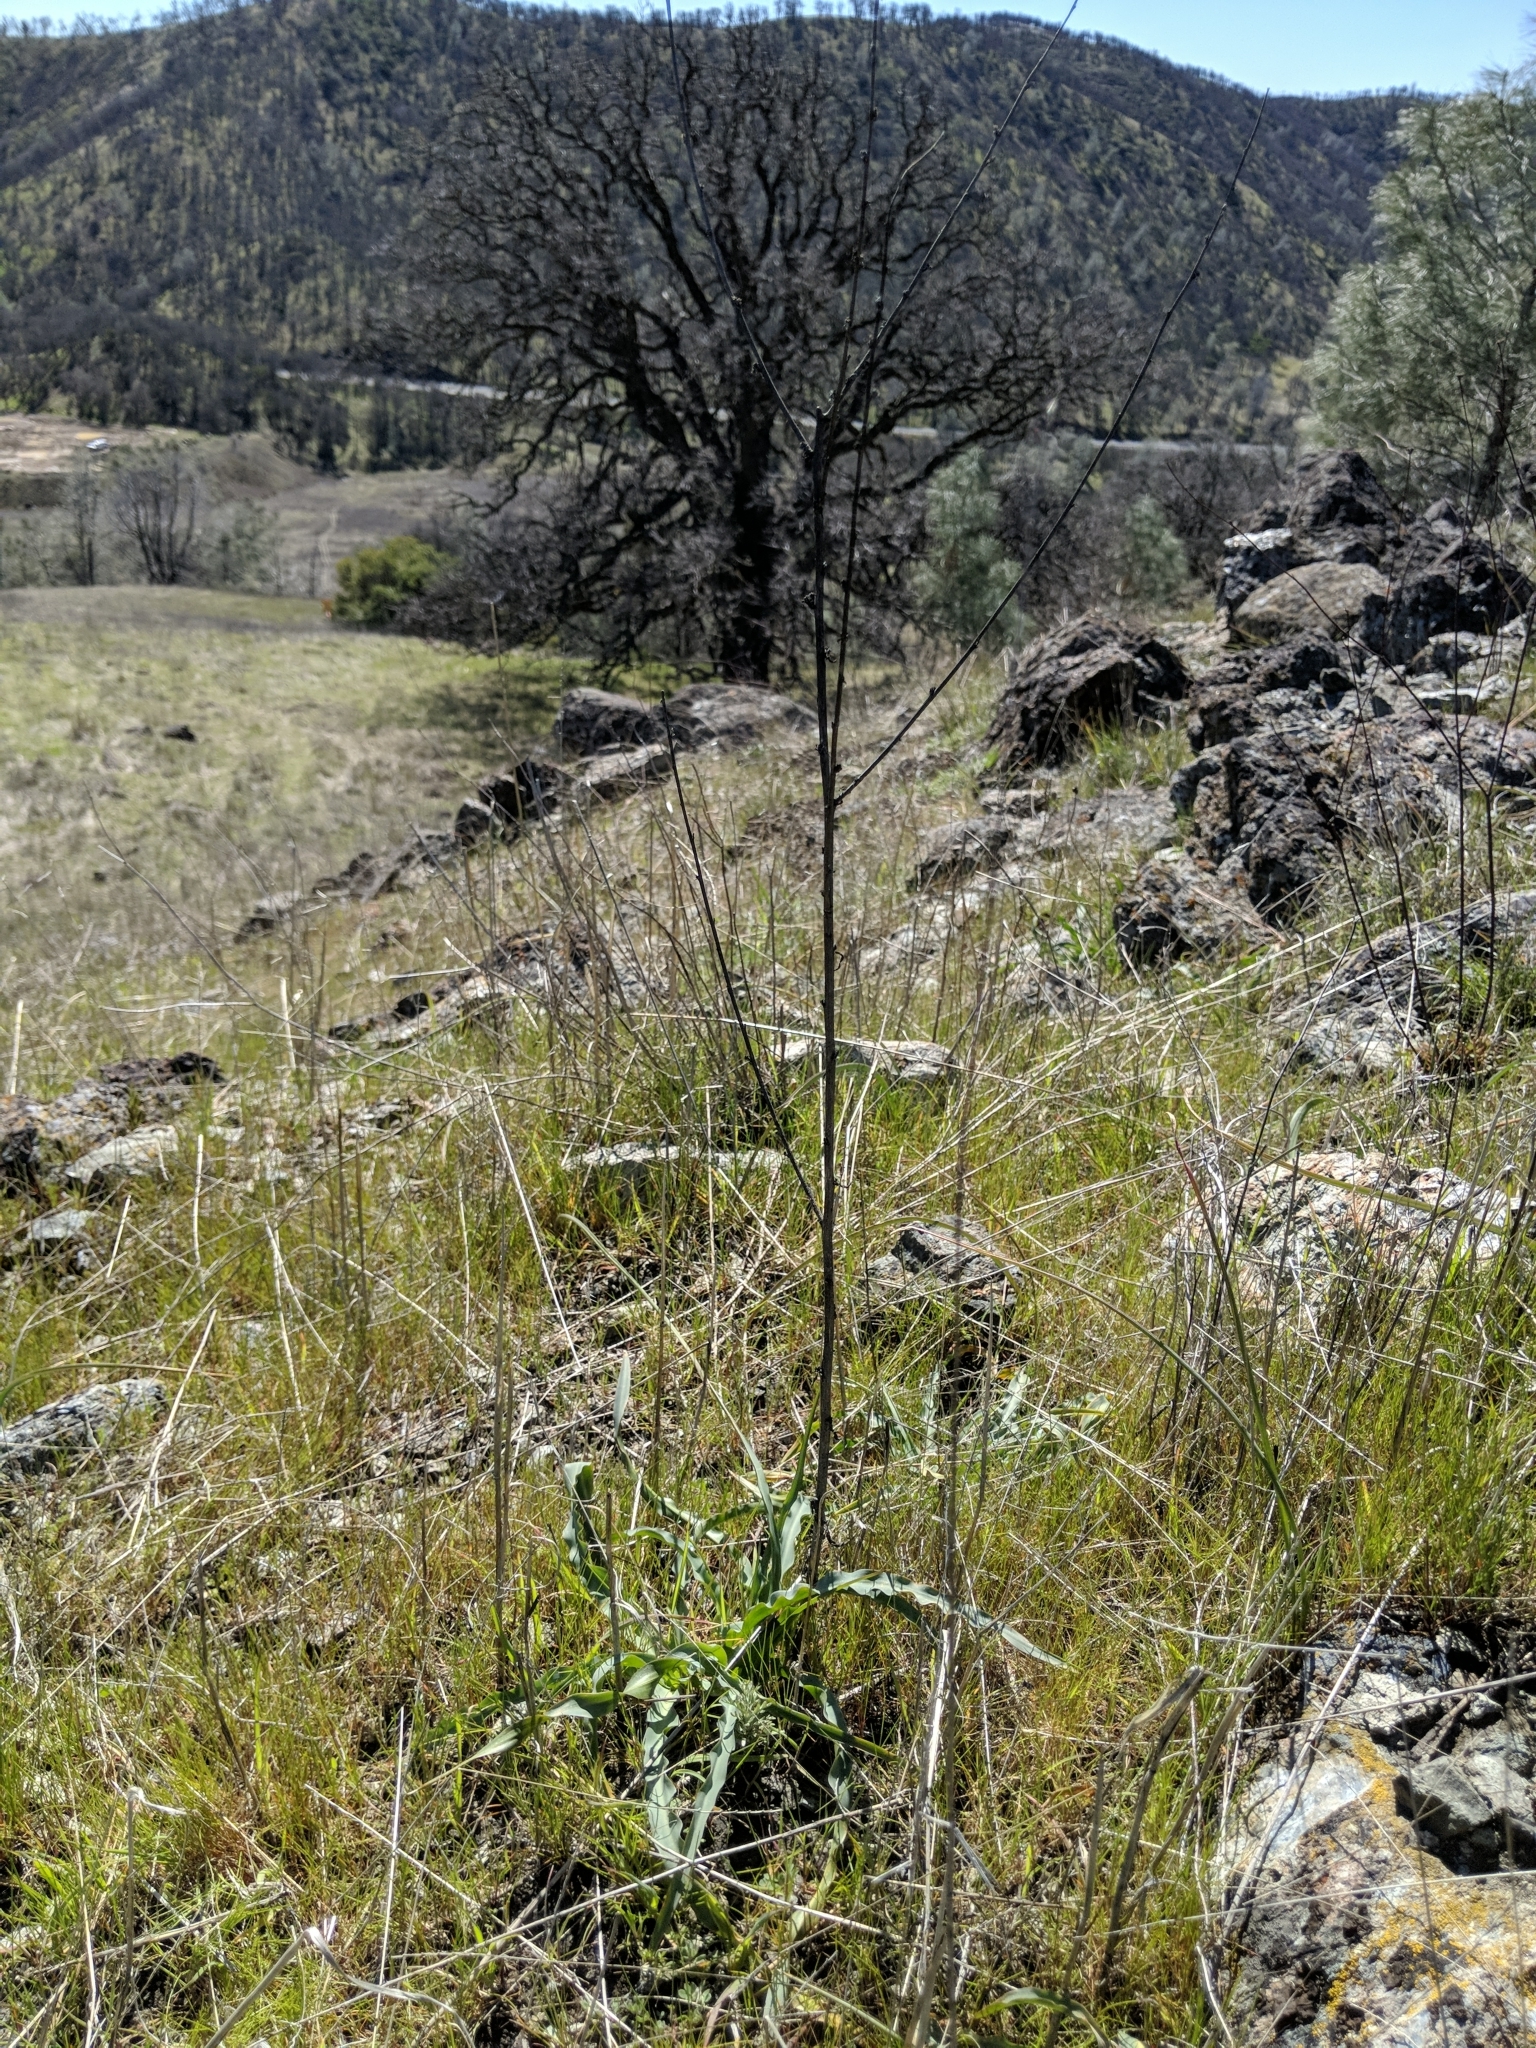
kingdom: Plantae
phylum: Tracheophyta
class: Liliopsida
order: Asparagales
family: Asparagaceae
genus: Chlorogalum
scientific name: Chlorogalum pomeridianum
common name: Amole
